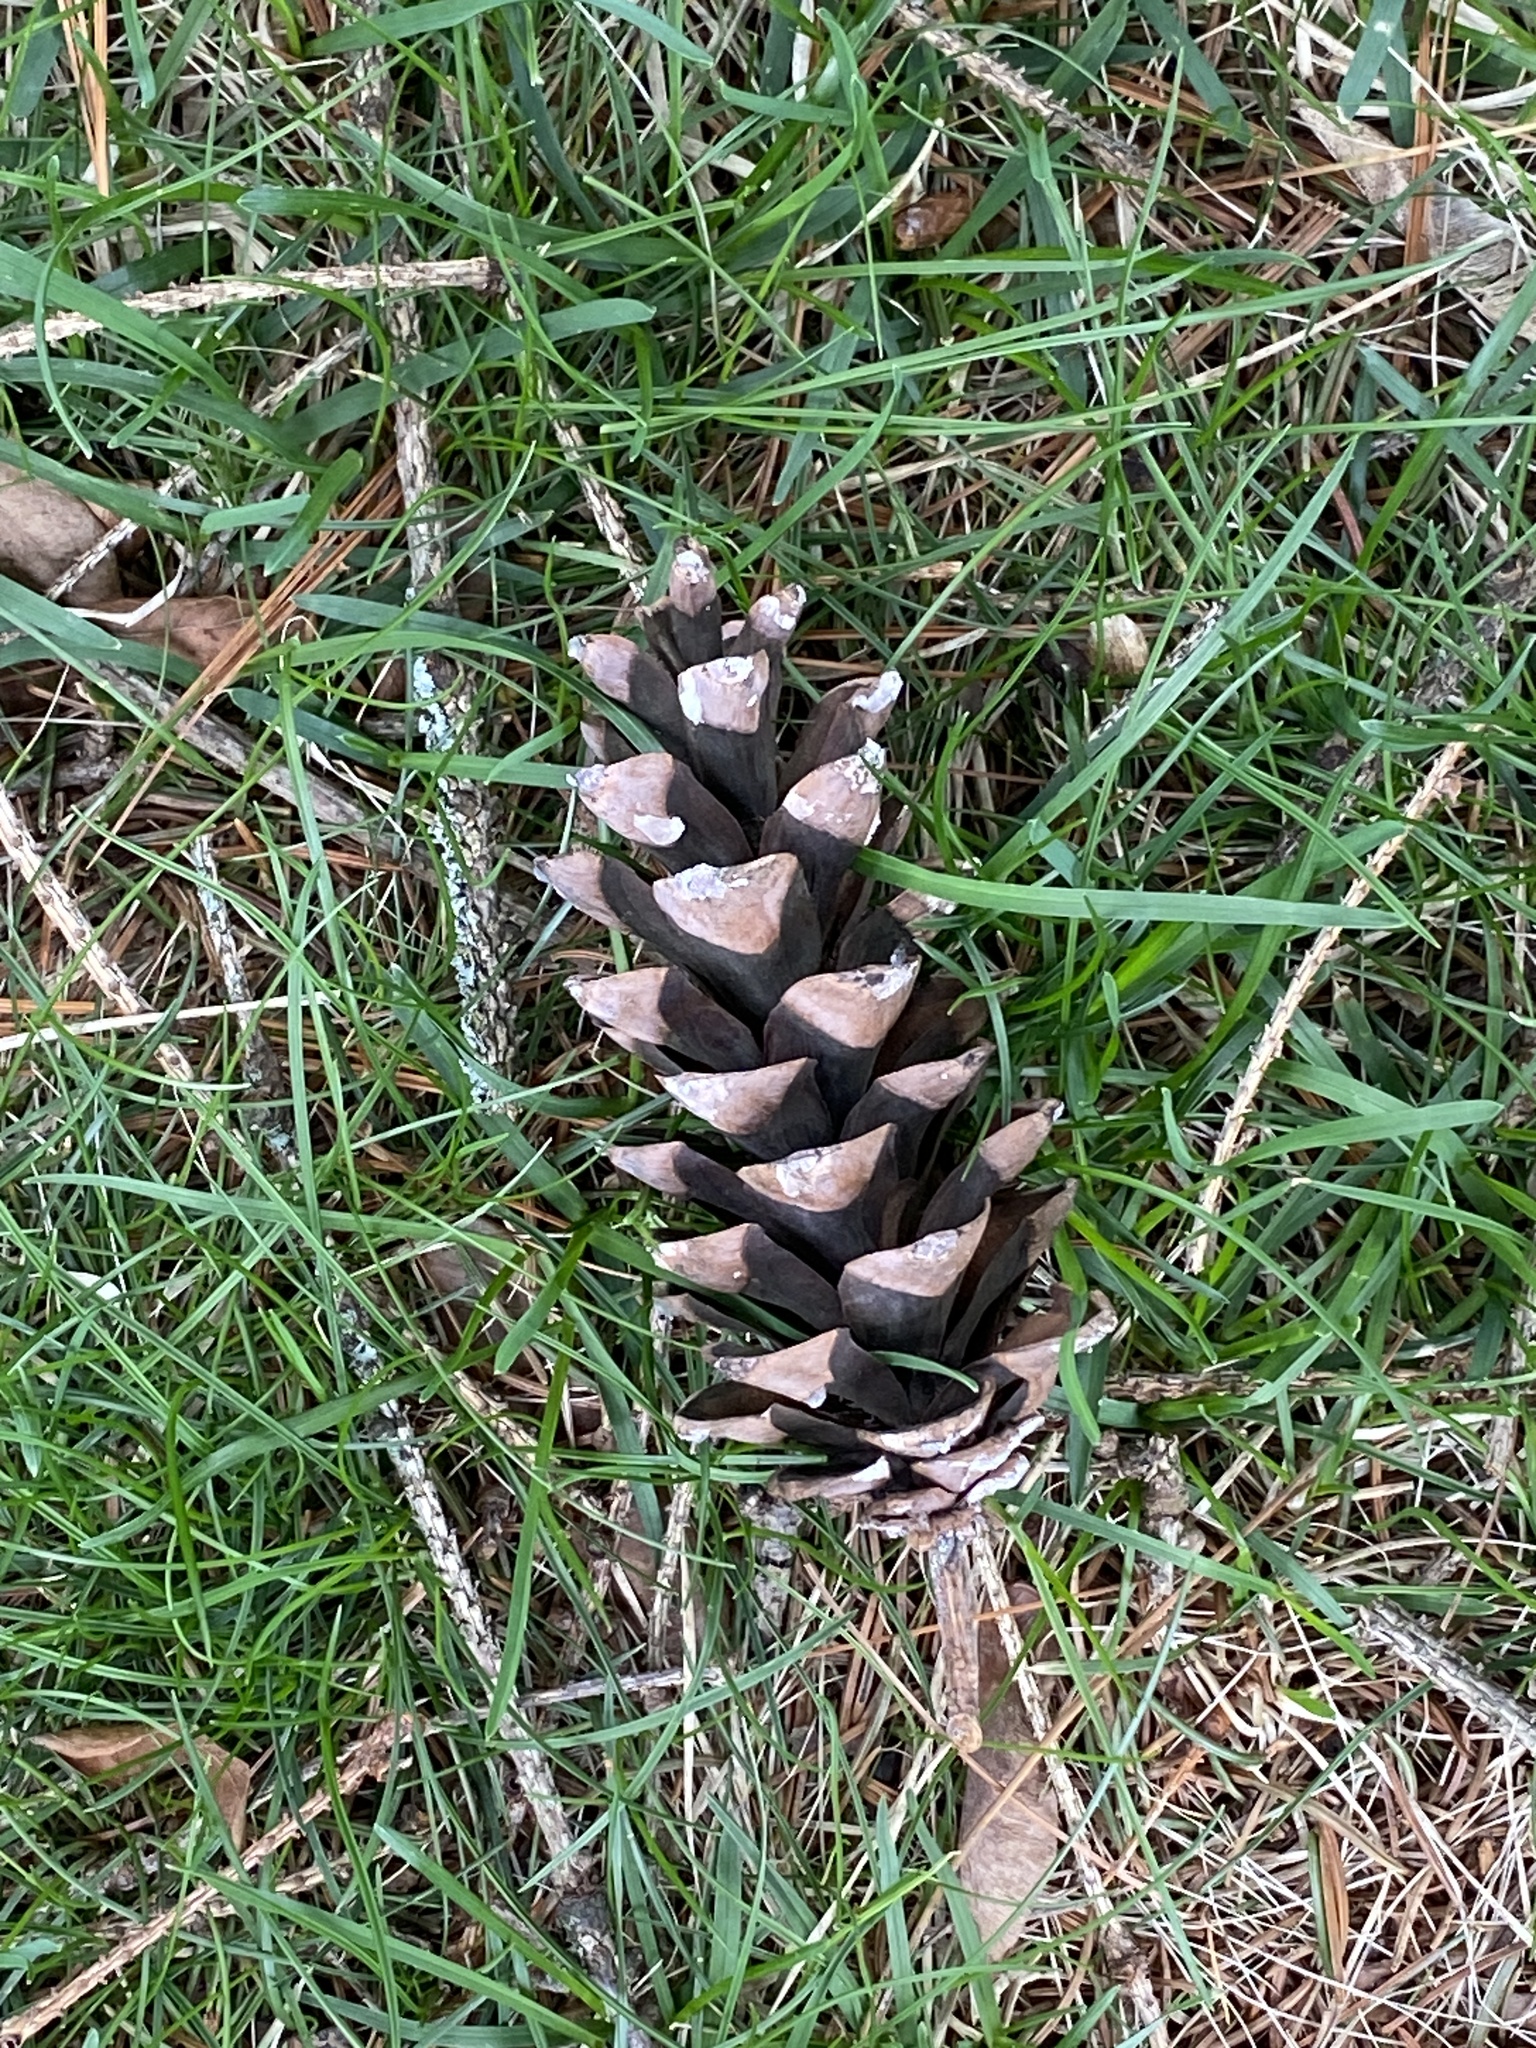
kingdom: Plantae
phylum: Tracheophyta
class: Pinopsida
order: Pinales
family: Pinaceae
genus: Pinus
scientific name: Pinus strobus
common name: Weymouth pine
